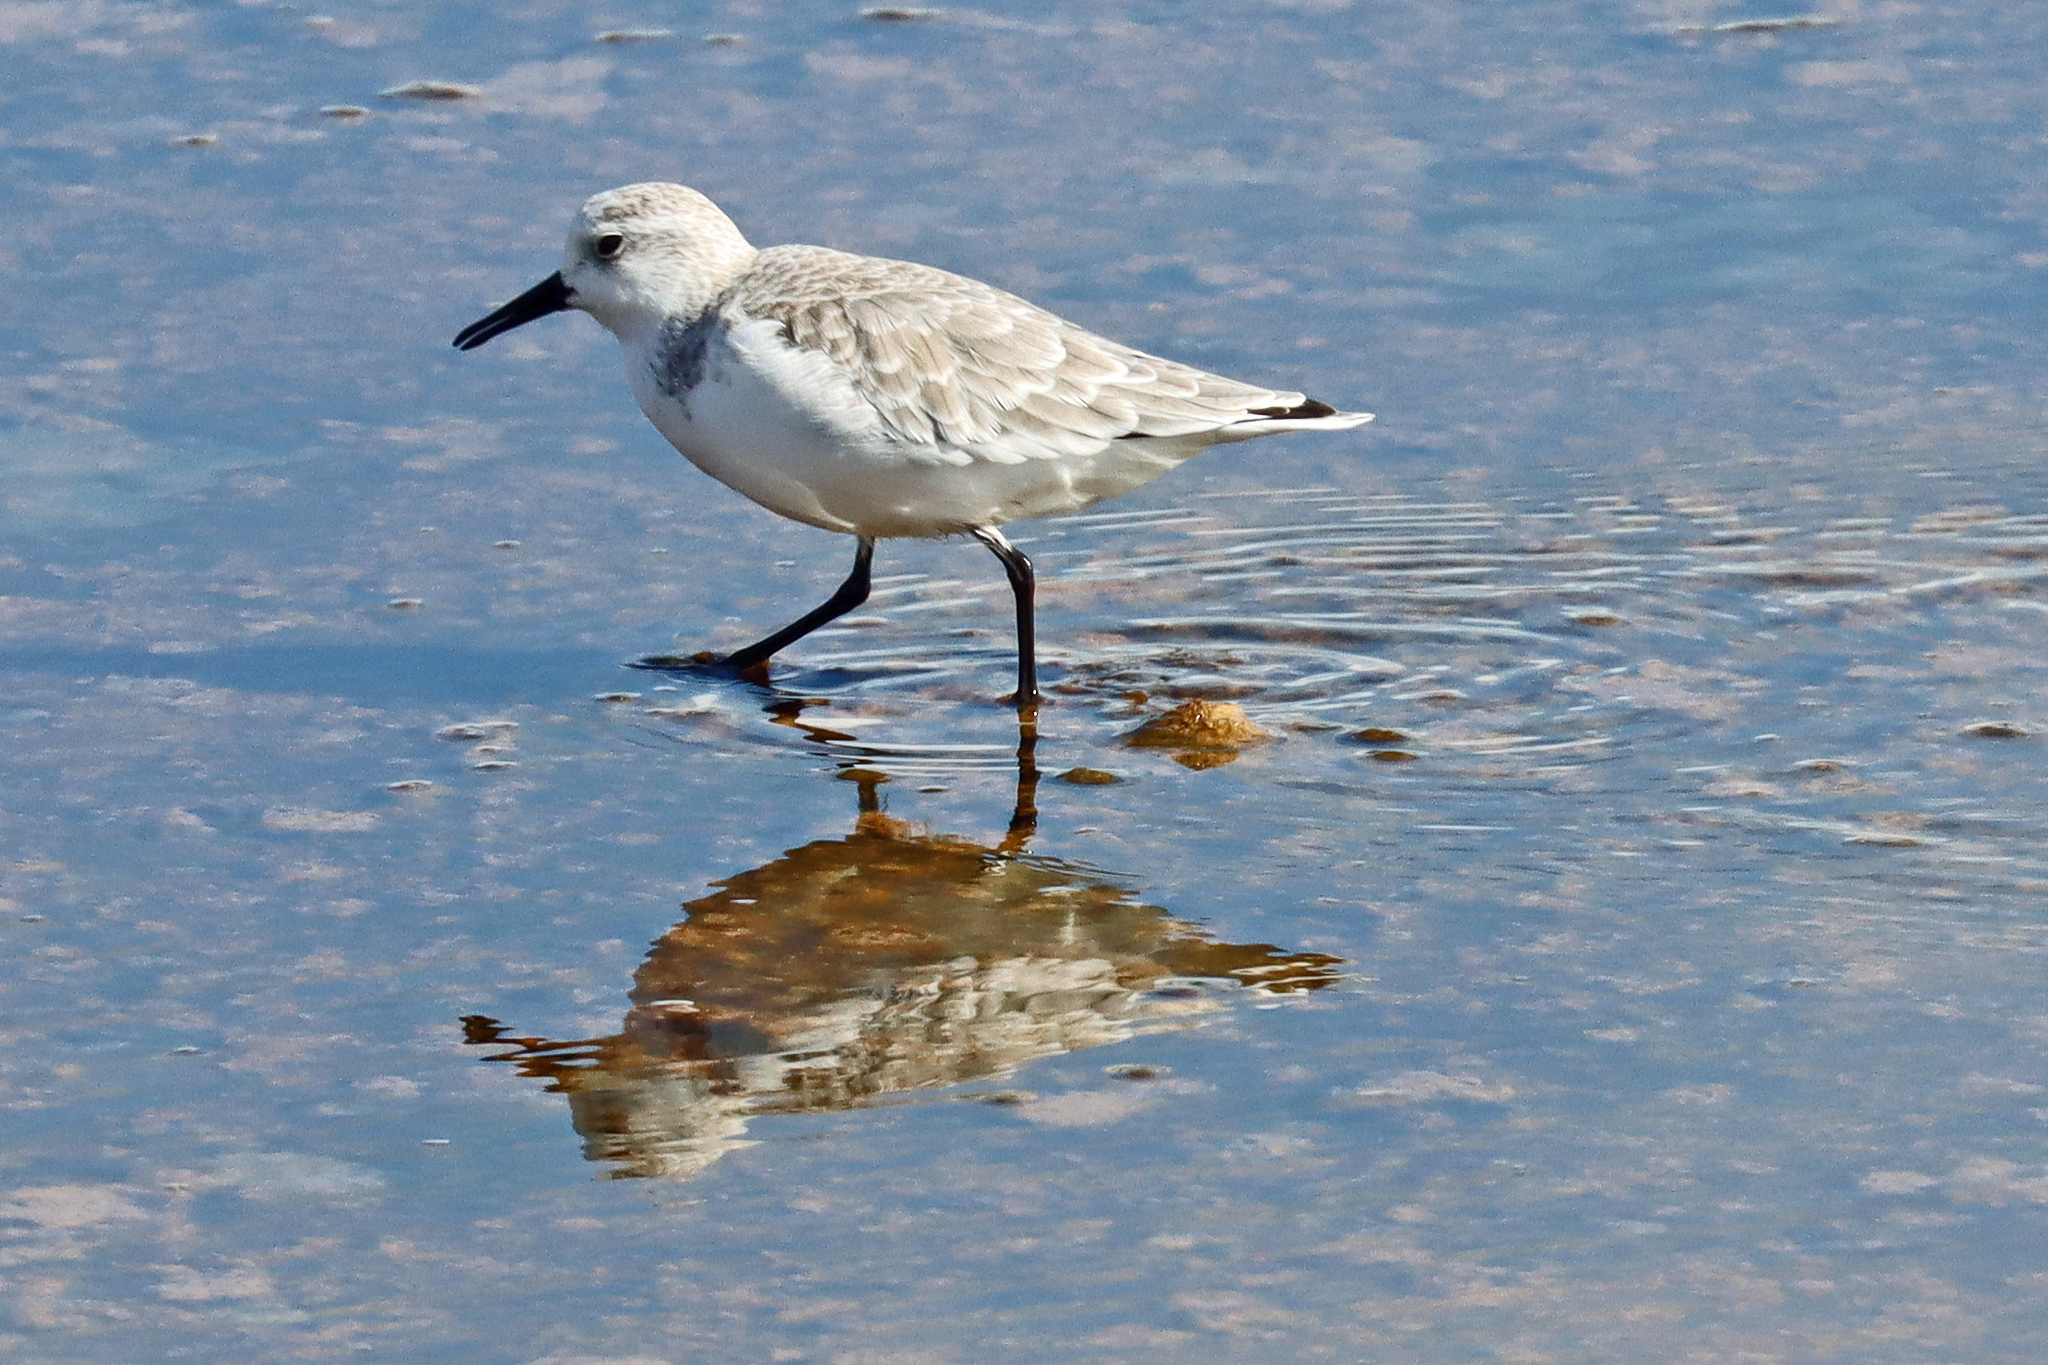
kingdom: Animalia
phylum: Chordata
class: Aves
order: Charadriiformes
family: Scolopacidae
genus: Calidris
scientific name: Calidris alba
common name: Sanderling
